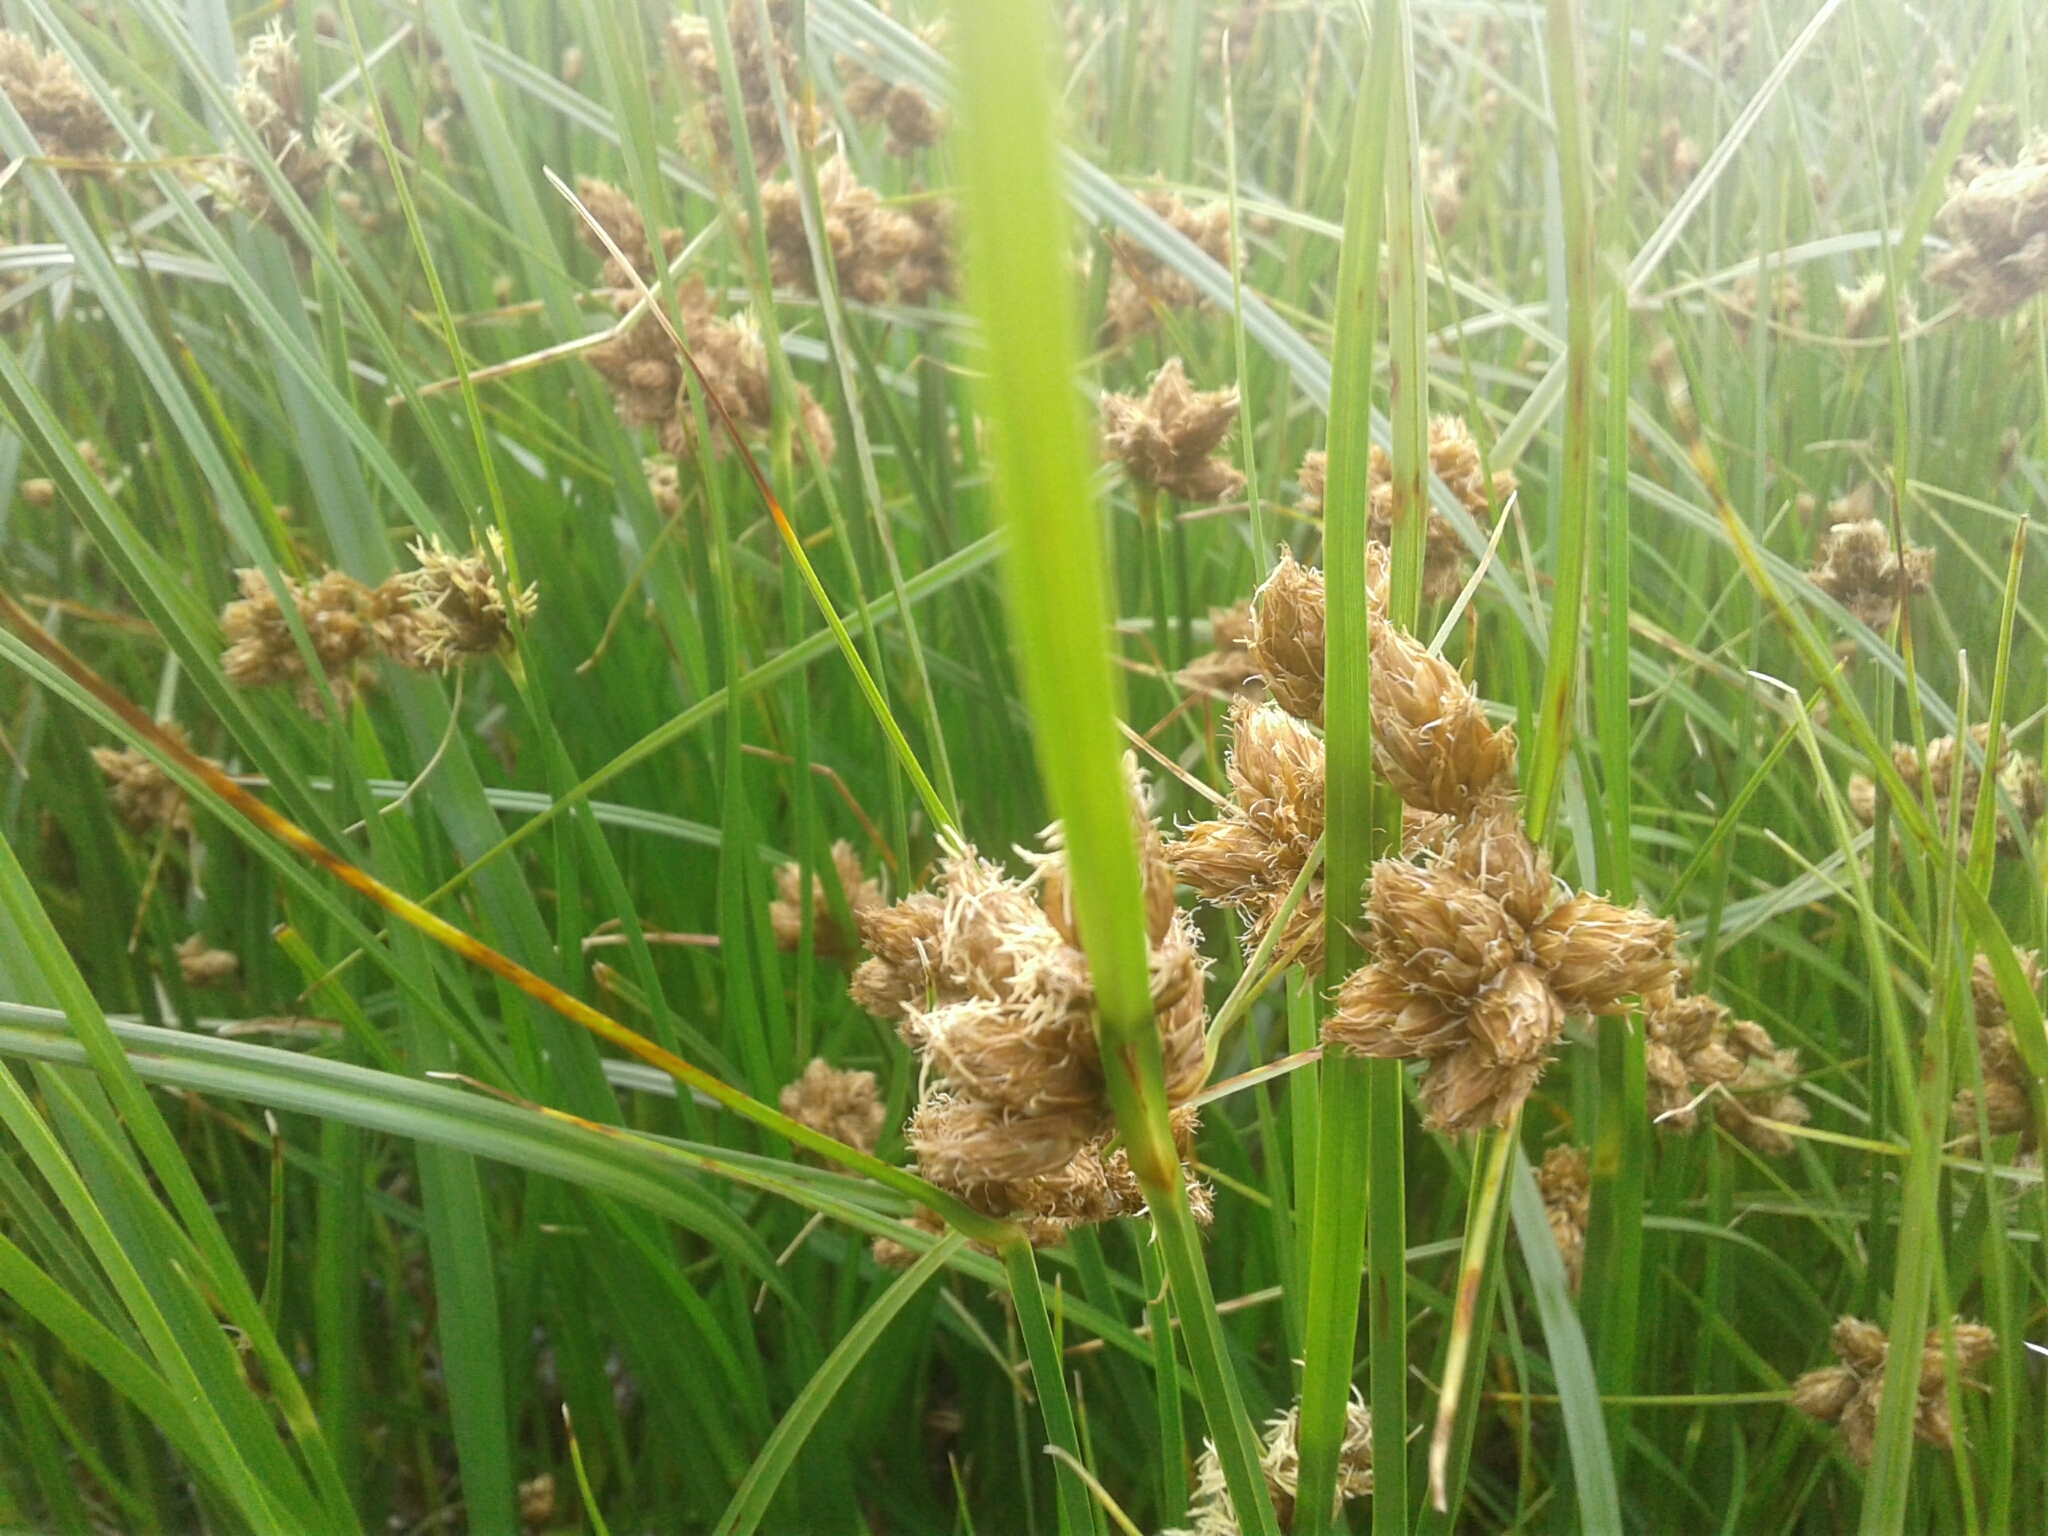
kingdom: Plantae
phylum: Tracheophyta
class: Liliopsida
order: Poales
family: Cyperaceae
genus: Bolboschoenus
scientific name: Bolboschoenus maritimus
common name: Sea club-rush
